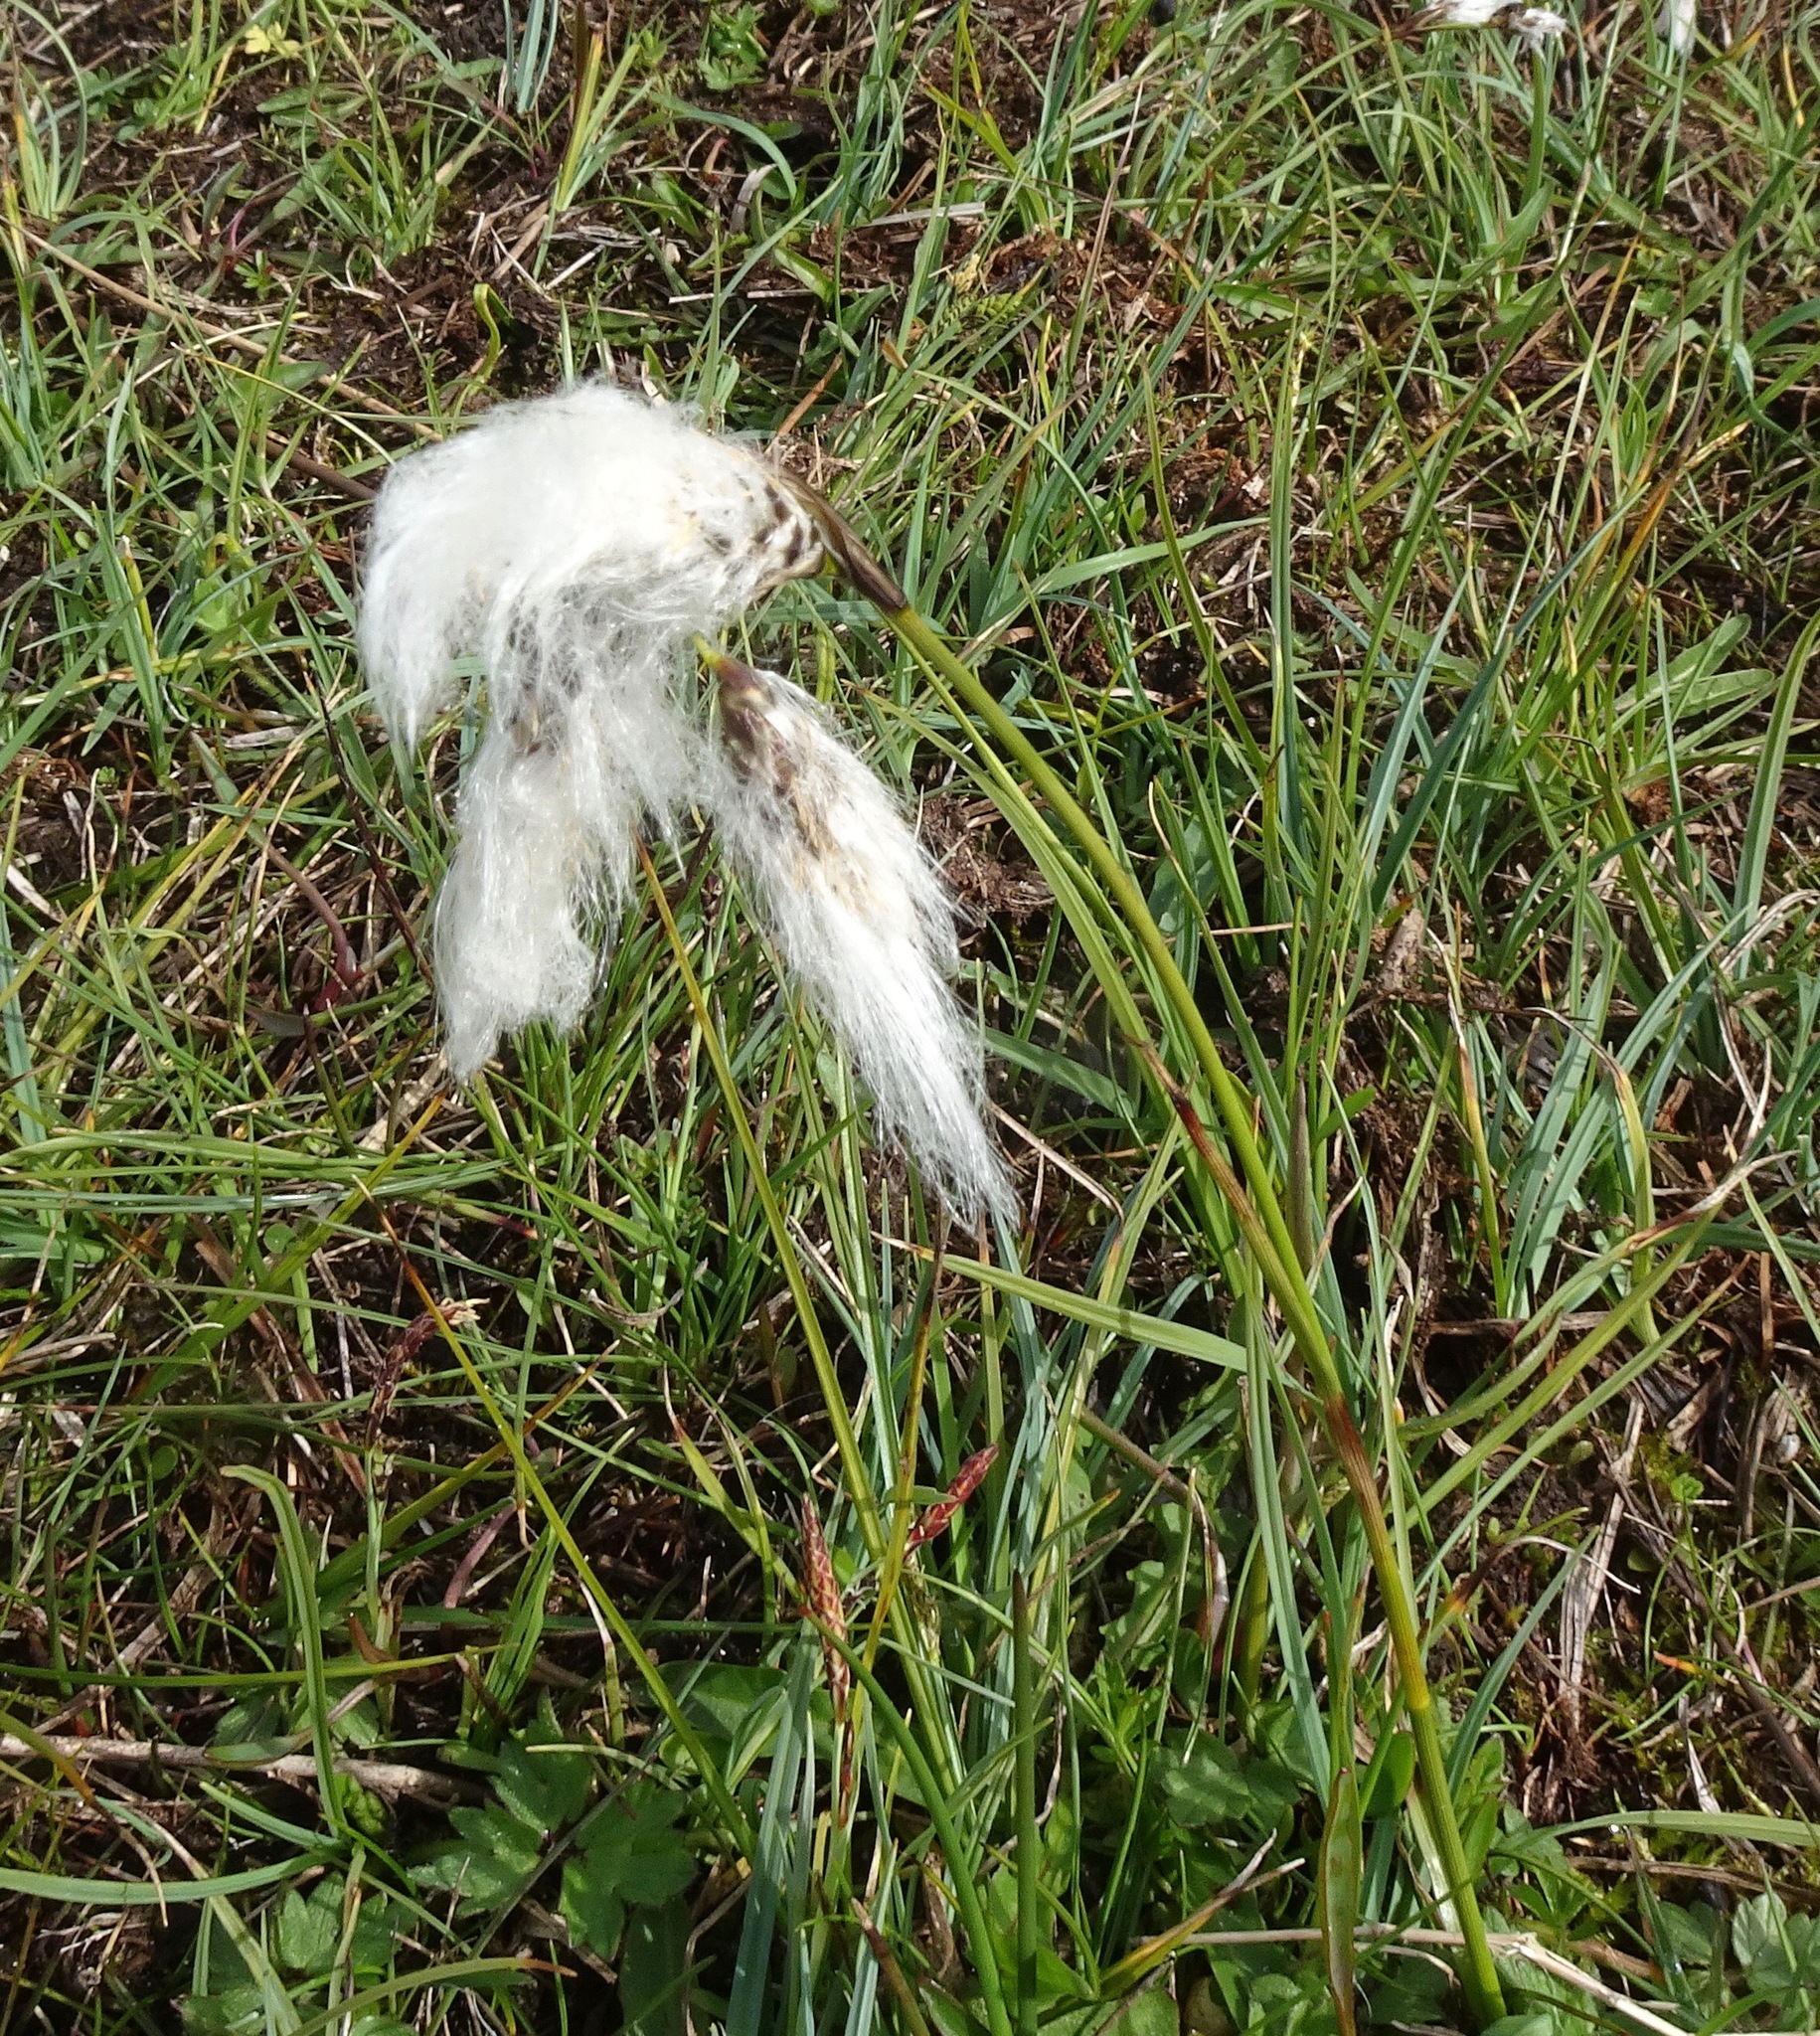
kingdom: Plantae
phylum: Tracheophyta
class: Liliopsida
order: Poales
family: Cyperaceae
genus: Eriophorum
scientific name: Eriophorum angustifolium
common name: Common cottongrass
